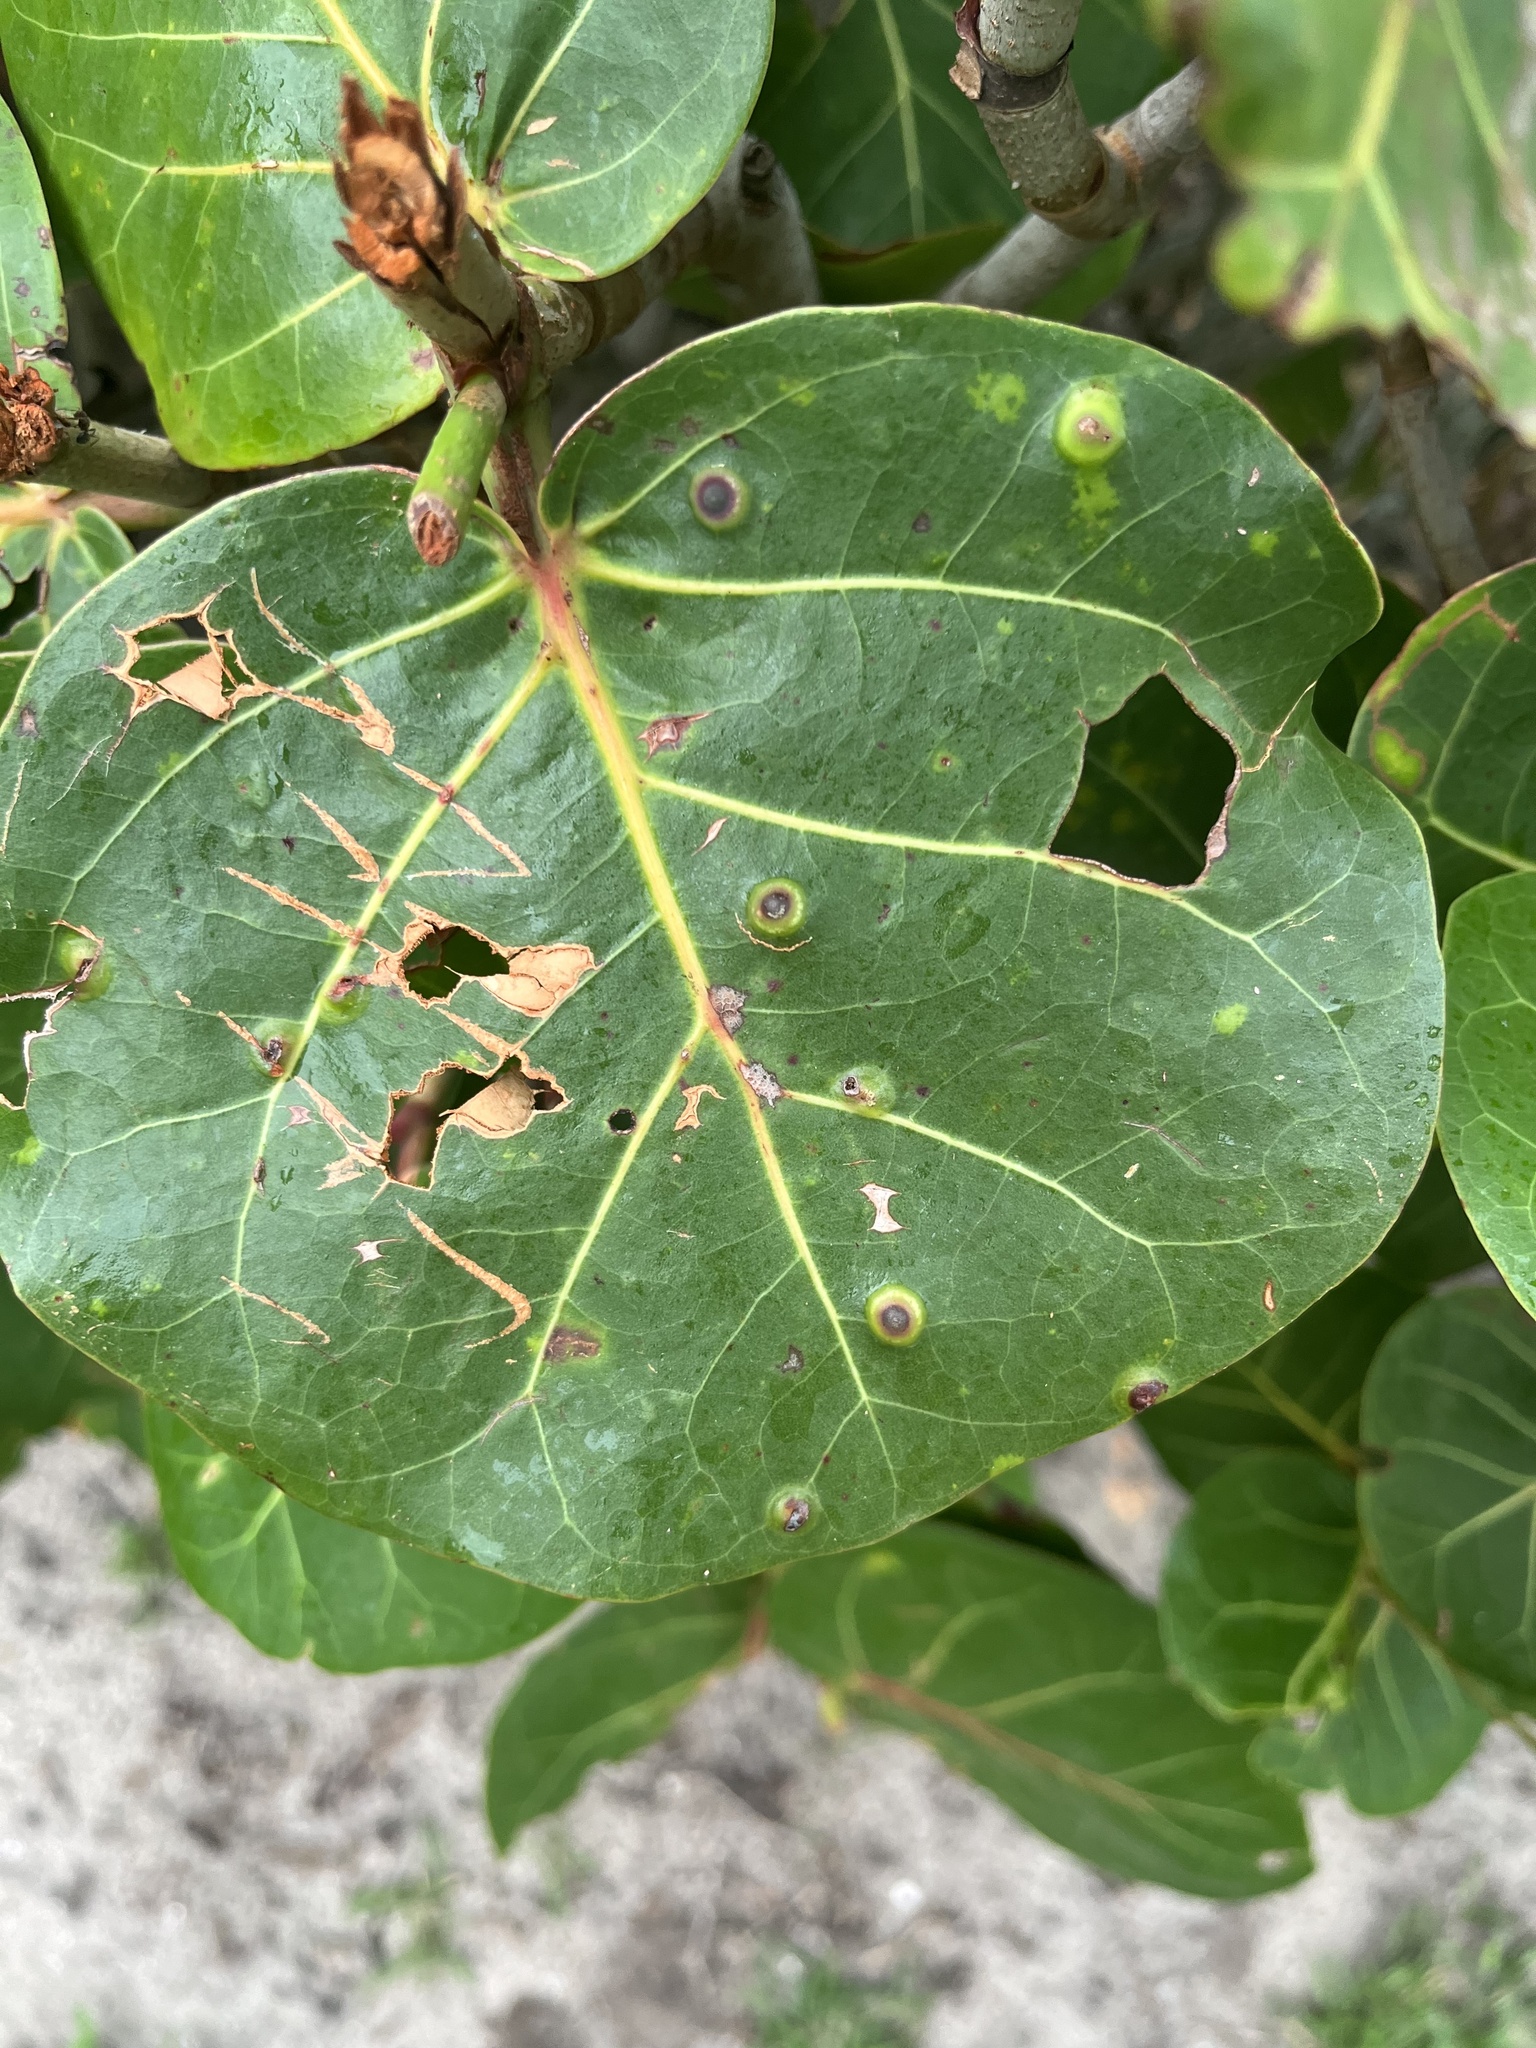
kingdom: Animalia
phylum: Arthropoda
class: Insecta
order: Diptera
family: Cecidomyiidae
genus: Ctenodactylomyia
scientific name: Ctenodactylomyia watsoni
